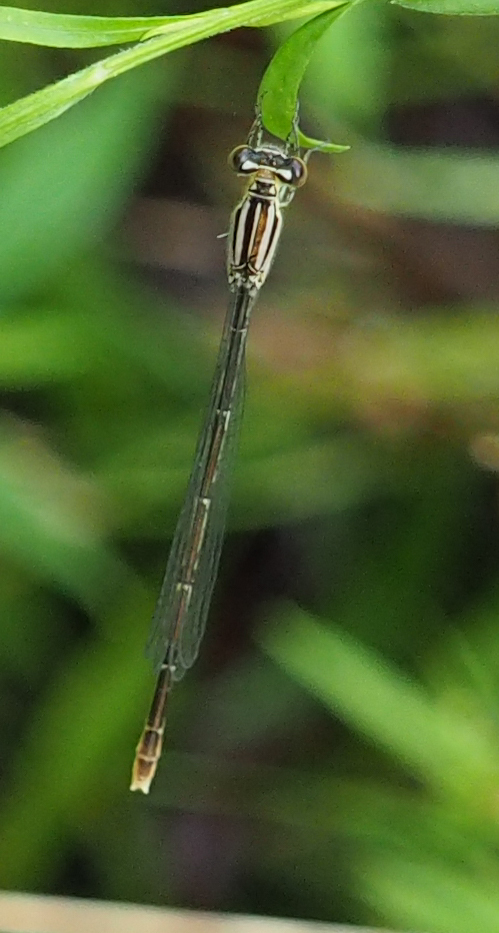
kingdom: Animalia
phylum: Arthropoda
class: Insecta
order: Odonata
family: Coenagrionidae
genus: Enallagma
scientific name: Enallagma durum
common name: Big bluet
